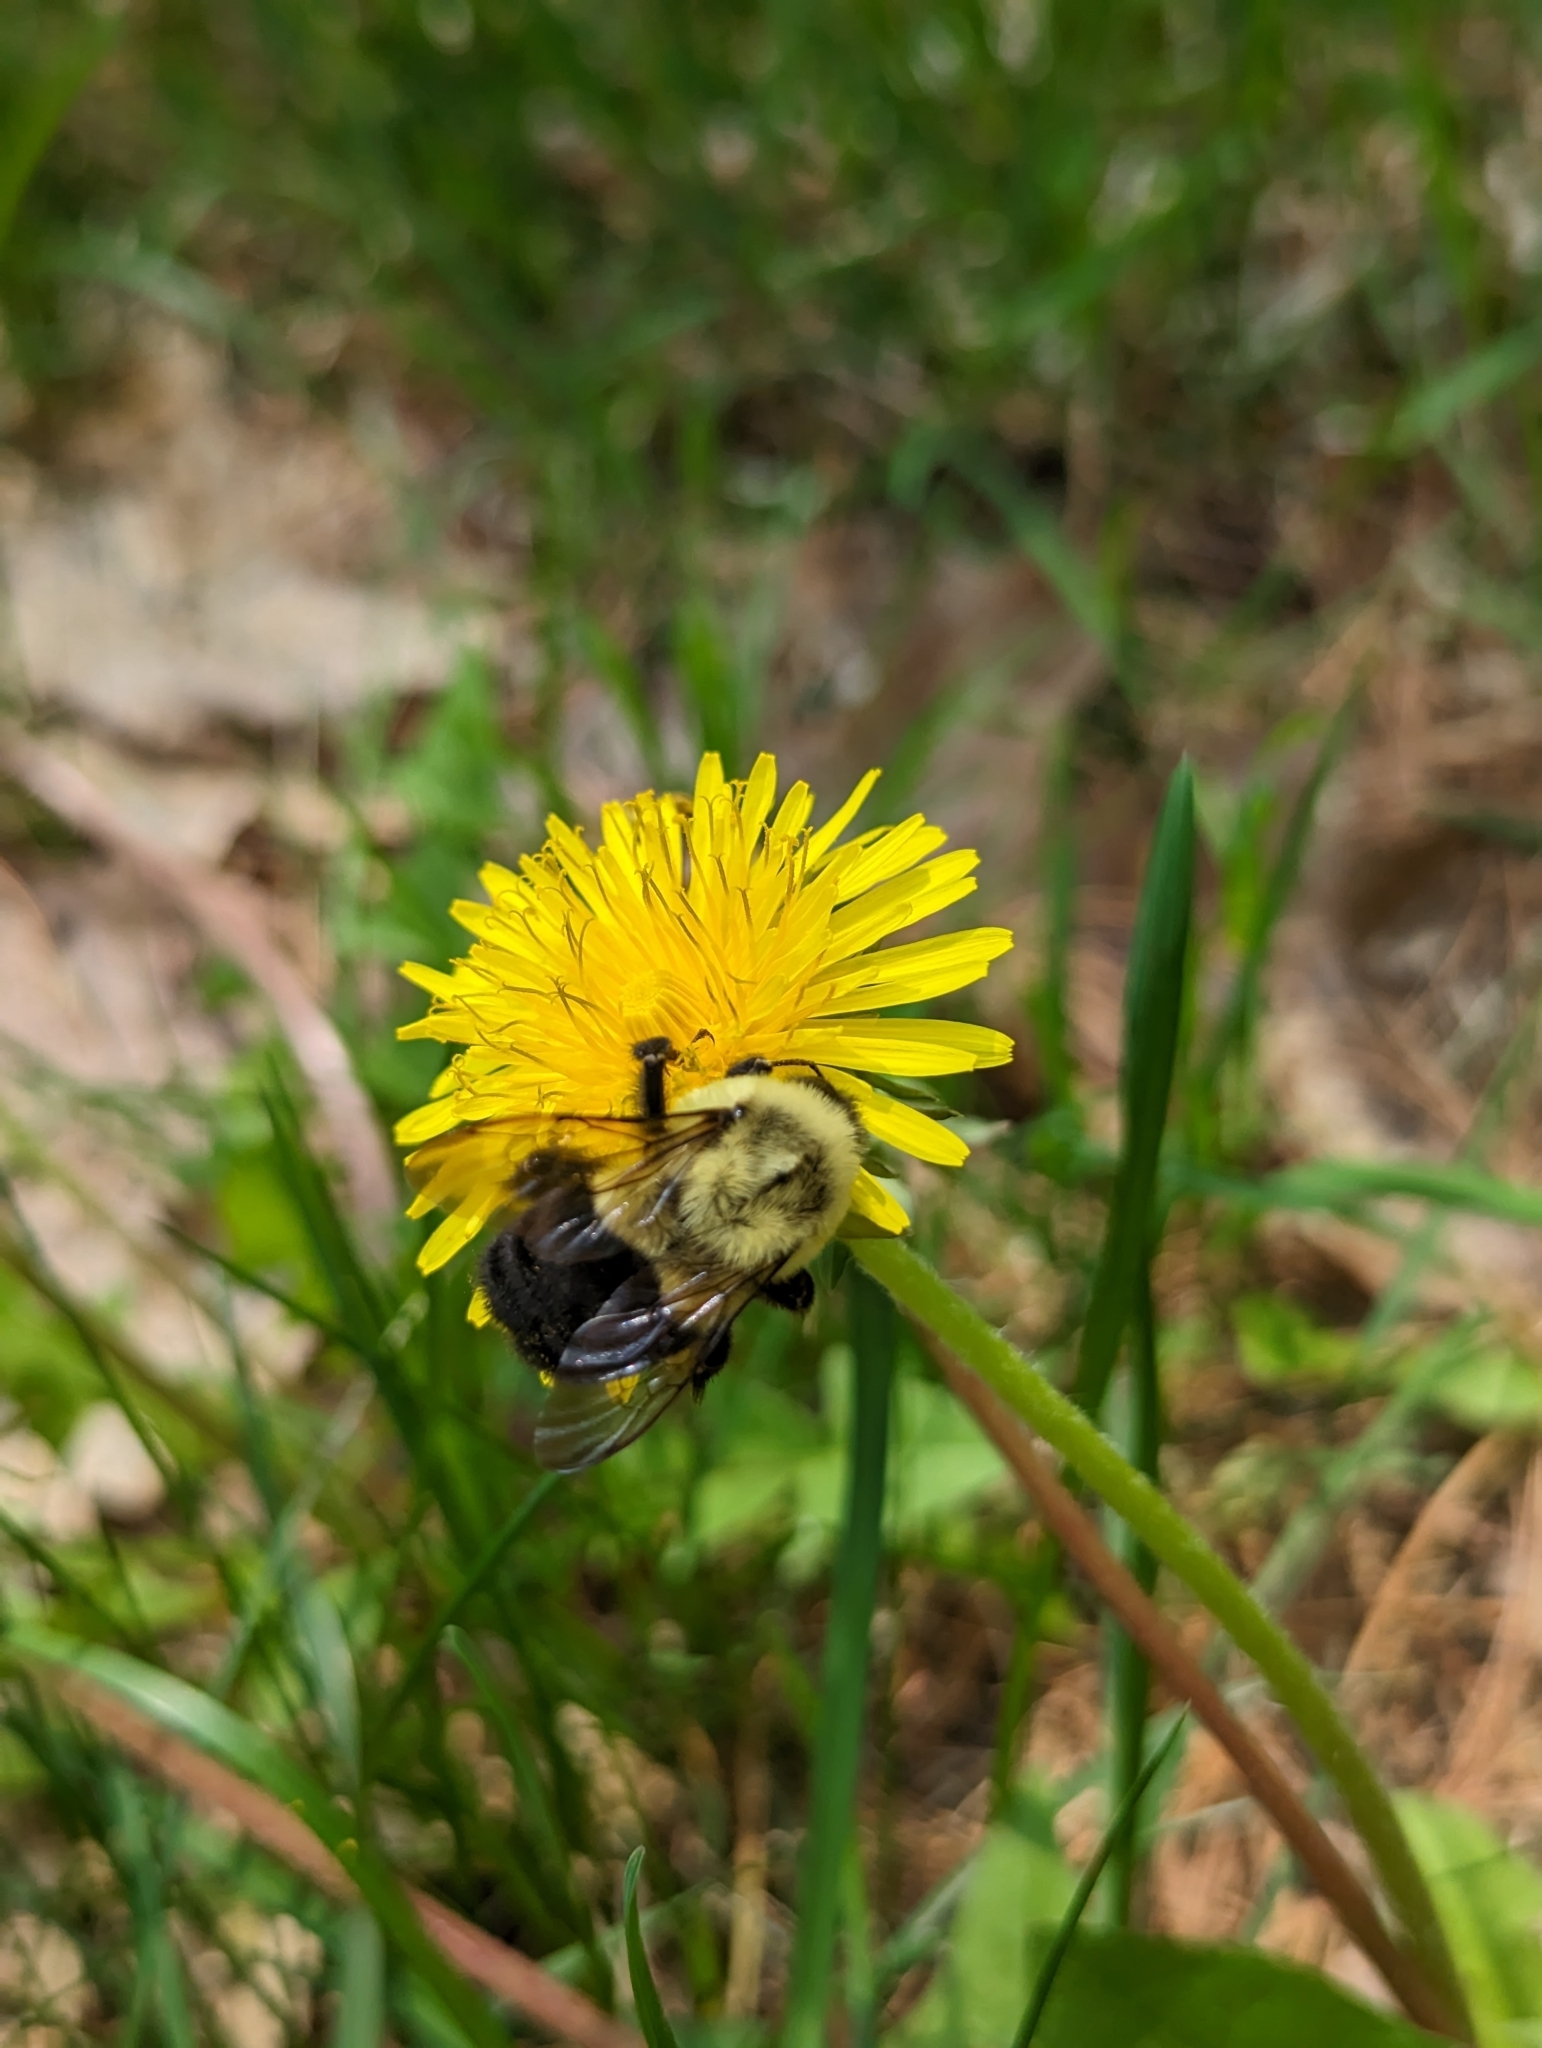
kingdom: Animalia
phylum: Arthropoda
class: Insecta
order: Hymenoptera
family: Apidae
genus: Bombus
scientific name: Bombus impatiens
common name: Common eastern bumble bee
